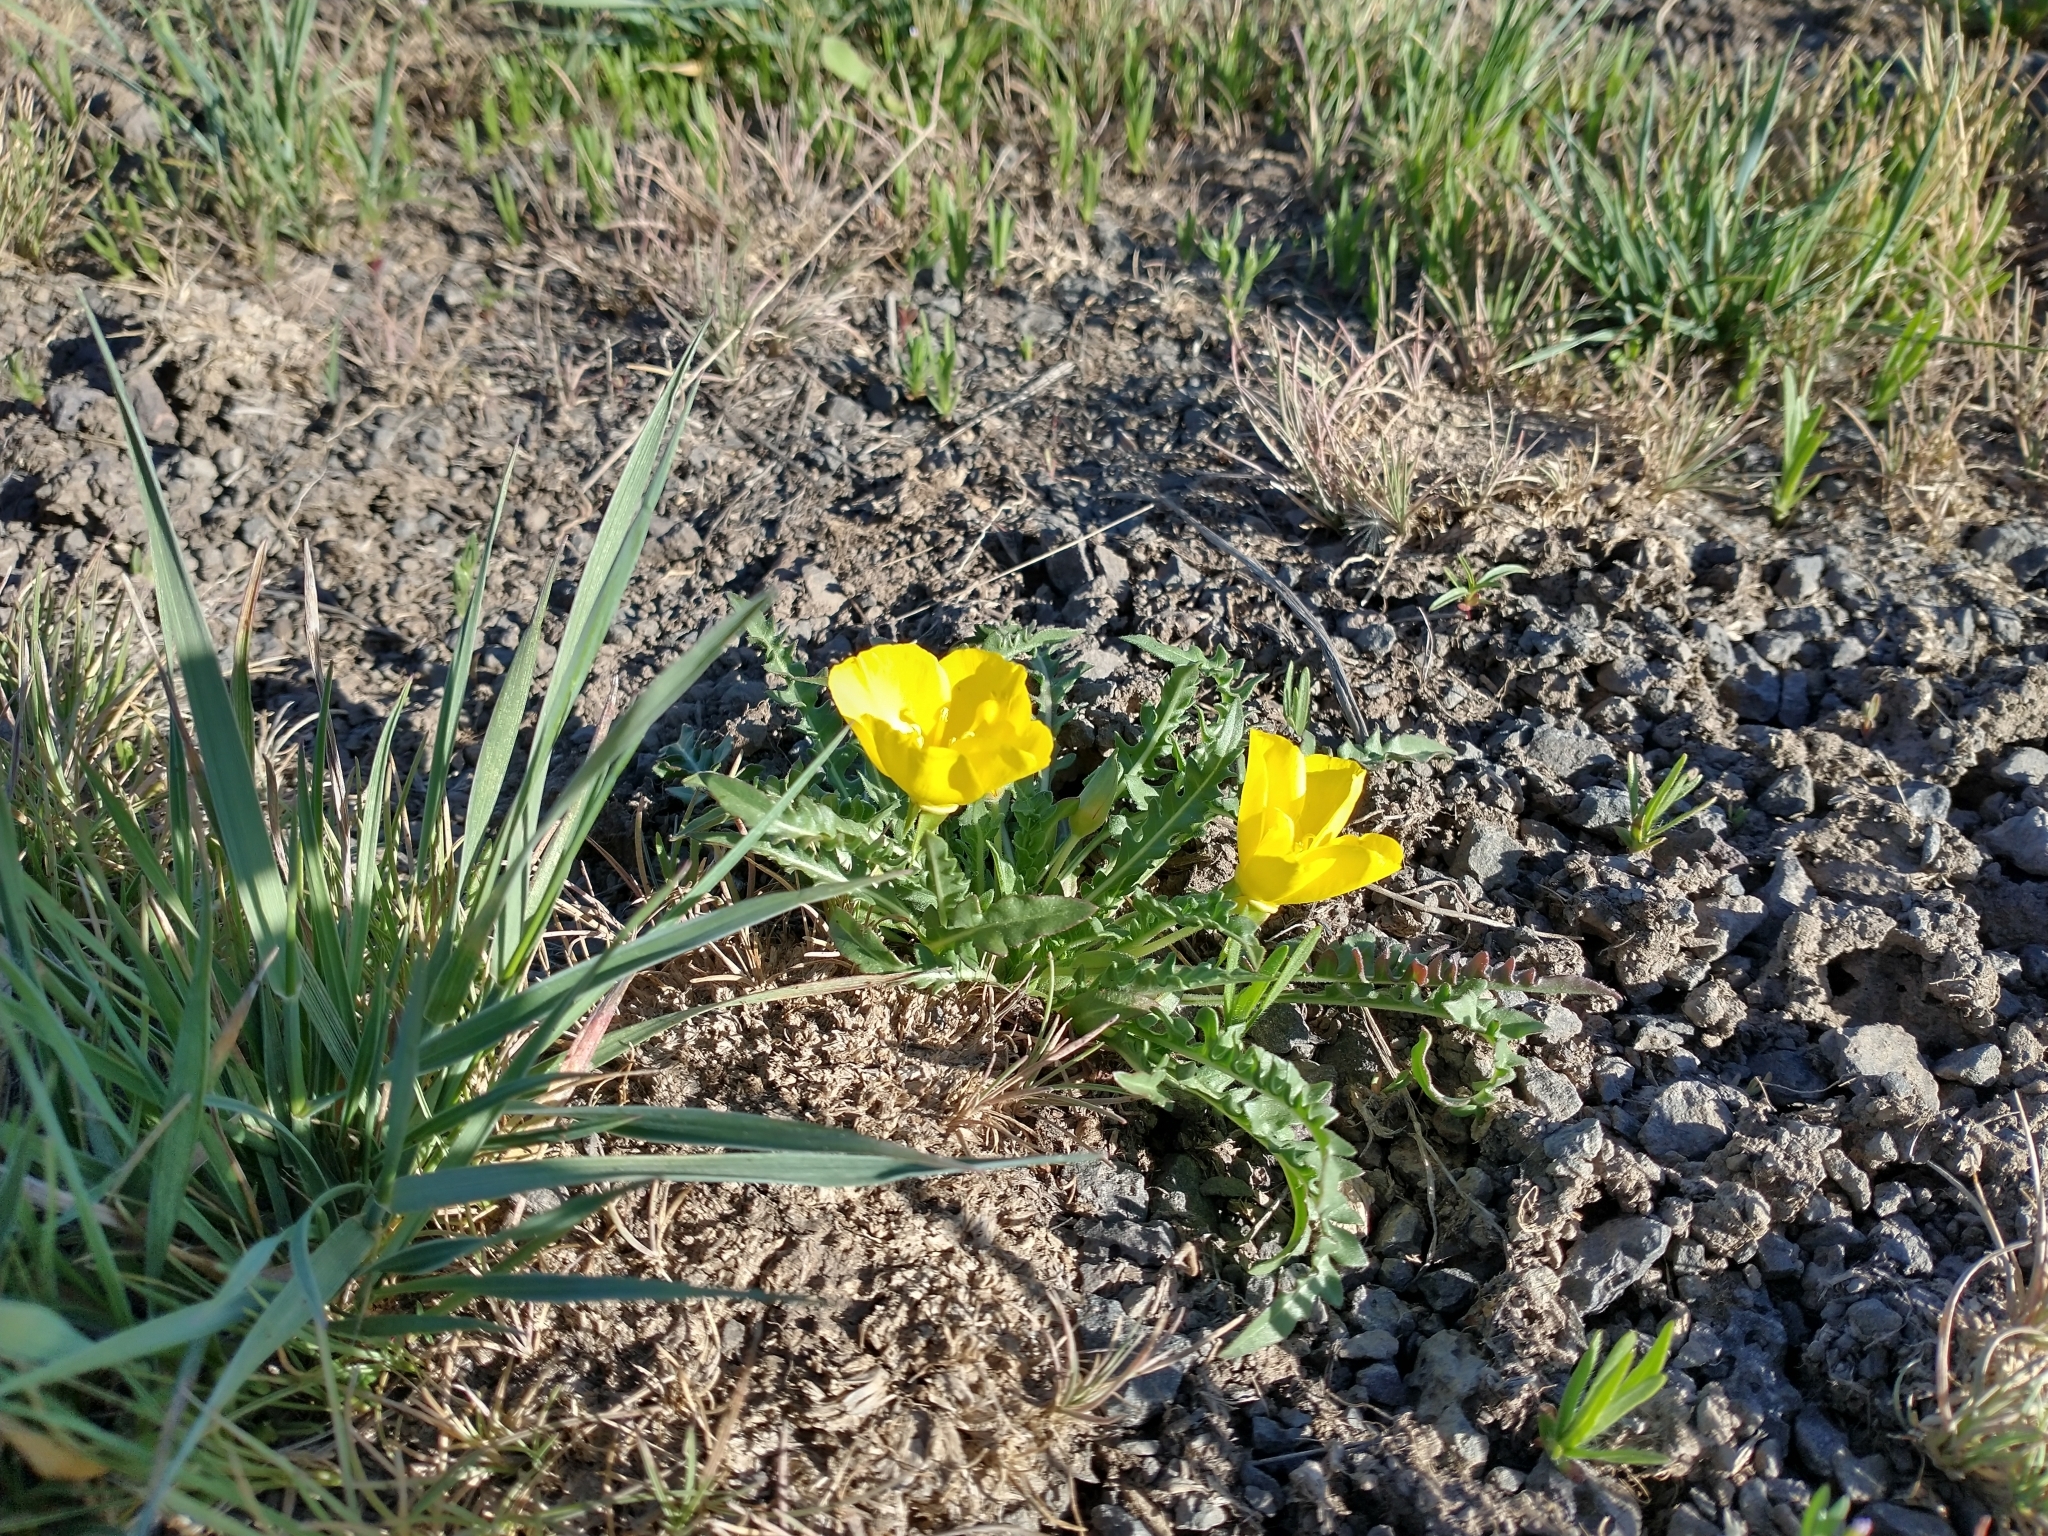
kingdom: Plantae
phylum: Tracheophyta
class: Magnoliopsida
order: Myrtales
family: Onagraceae
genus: Taraxia
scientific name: Taraxia tanacetifolia
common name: Tansyleaf evening primrose
